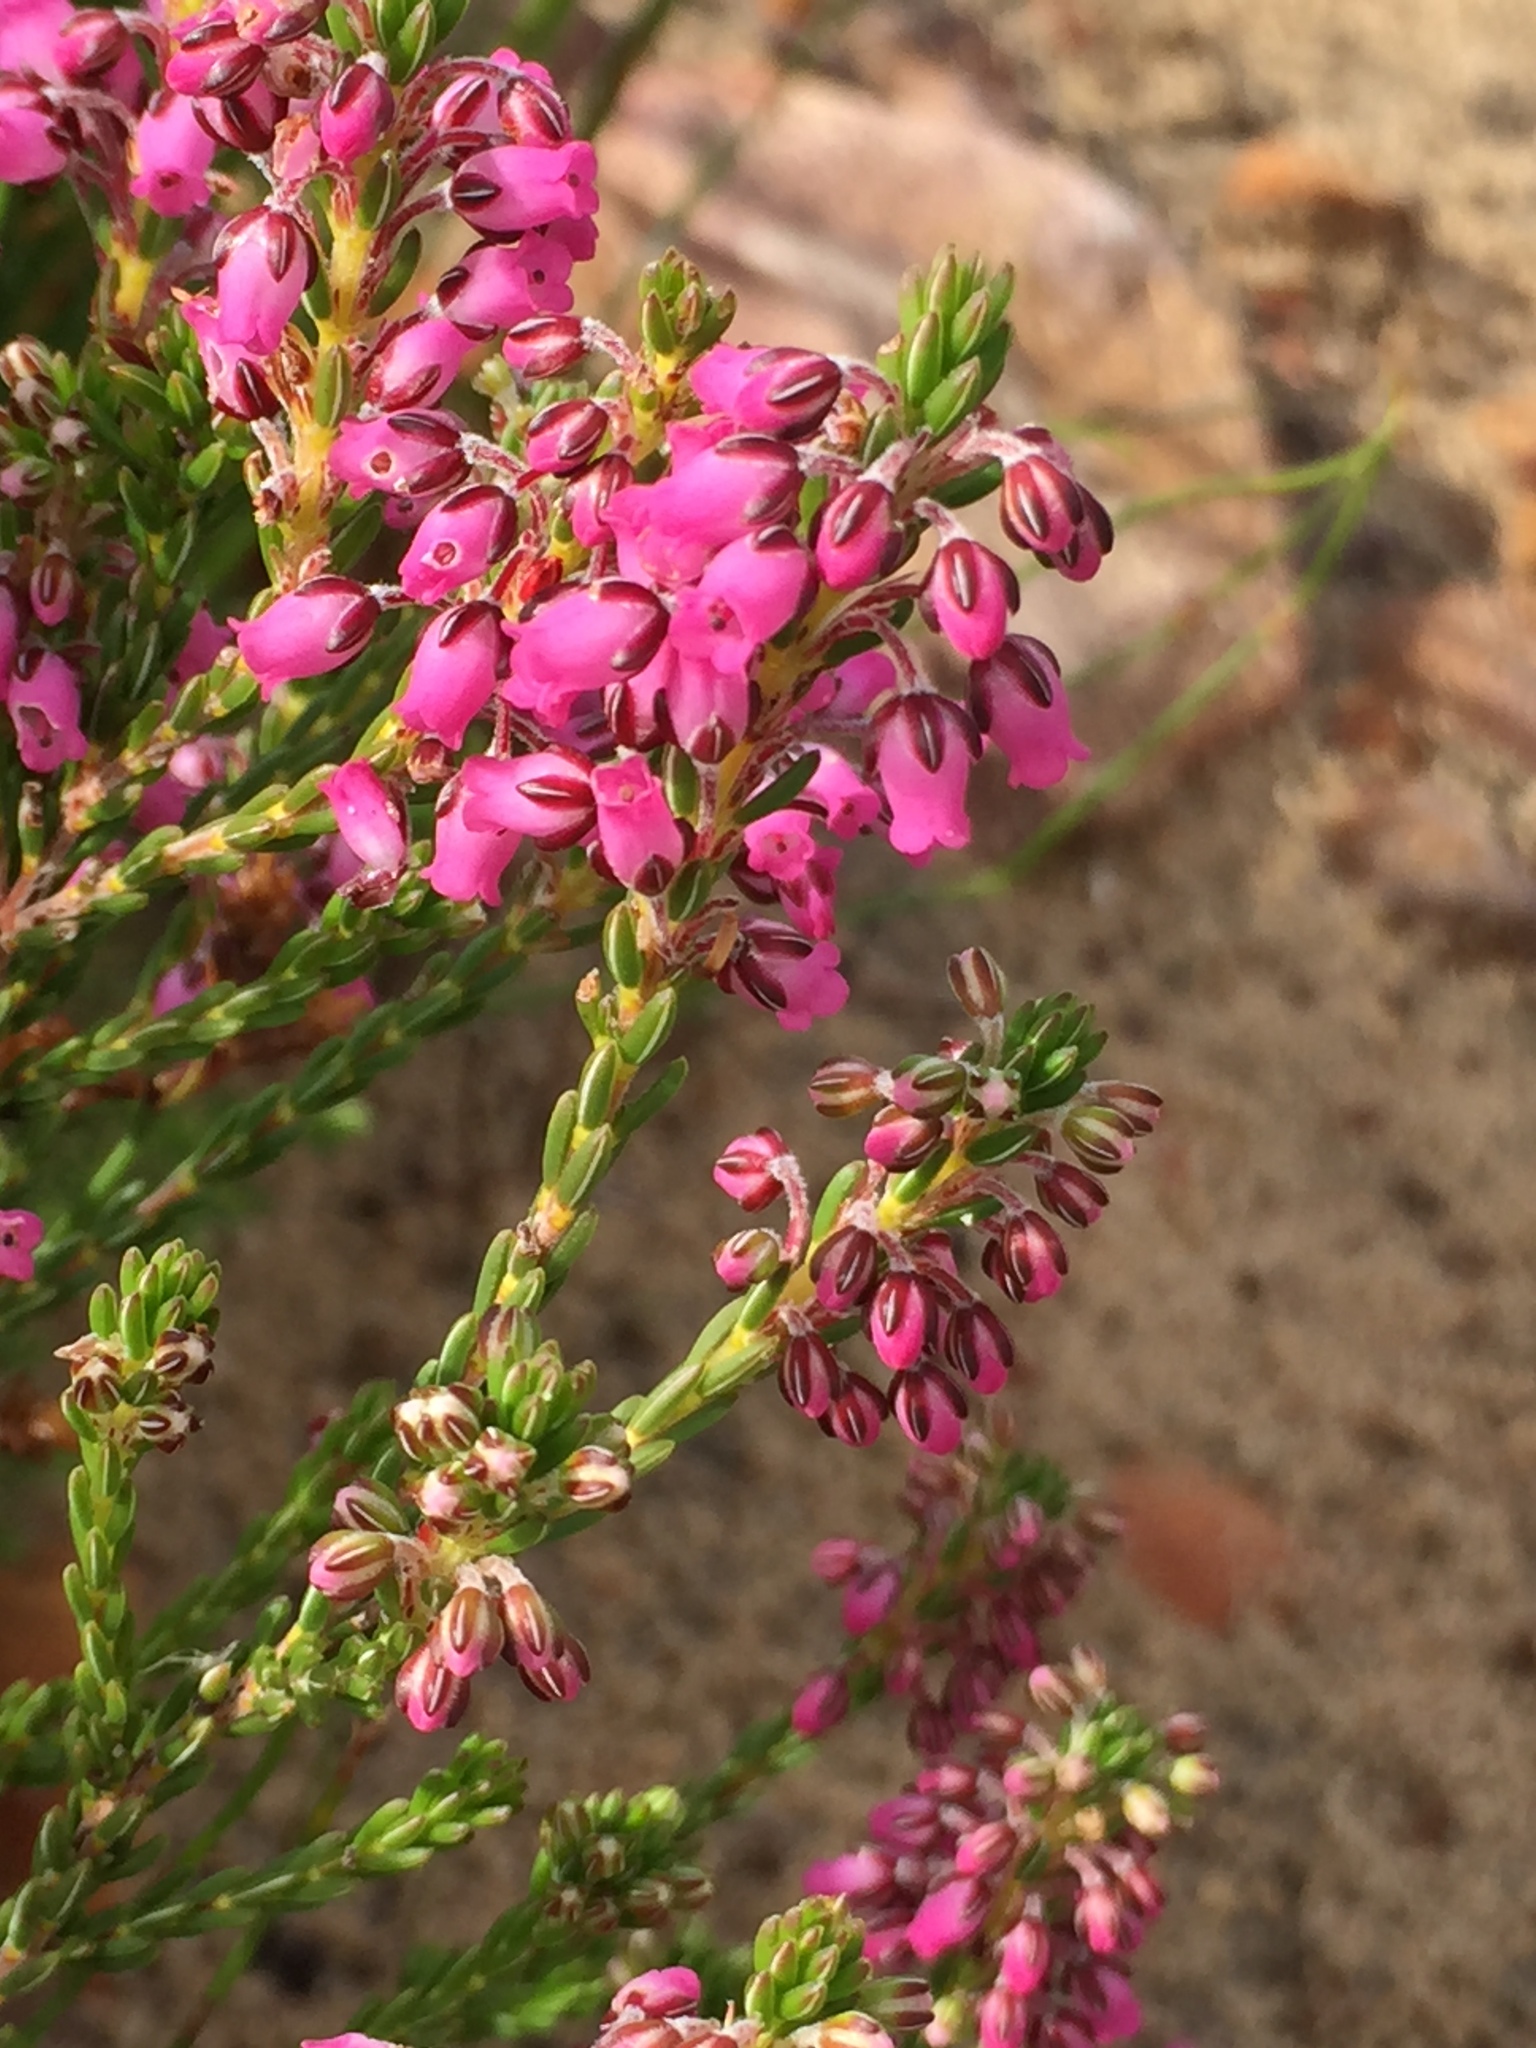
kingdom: Plantae
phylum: Tracheophyta
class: Magnoliopsida
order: Ericales
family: Ericaceae
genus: Erica
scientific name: Erica pulchella
